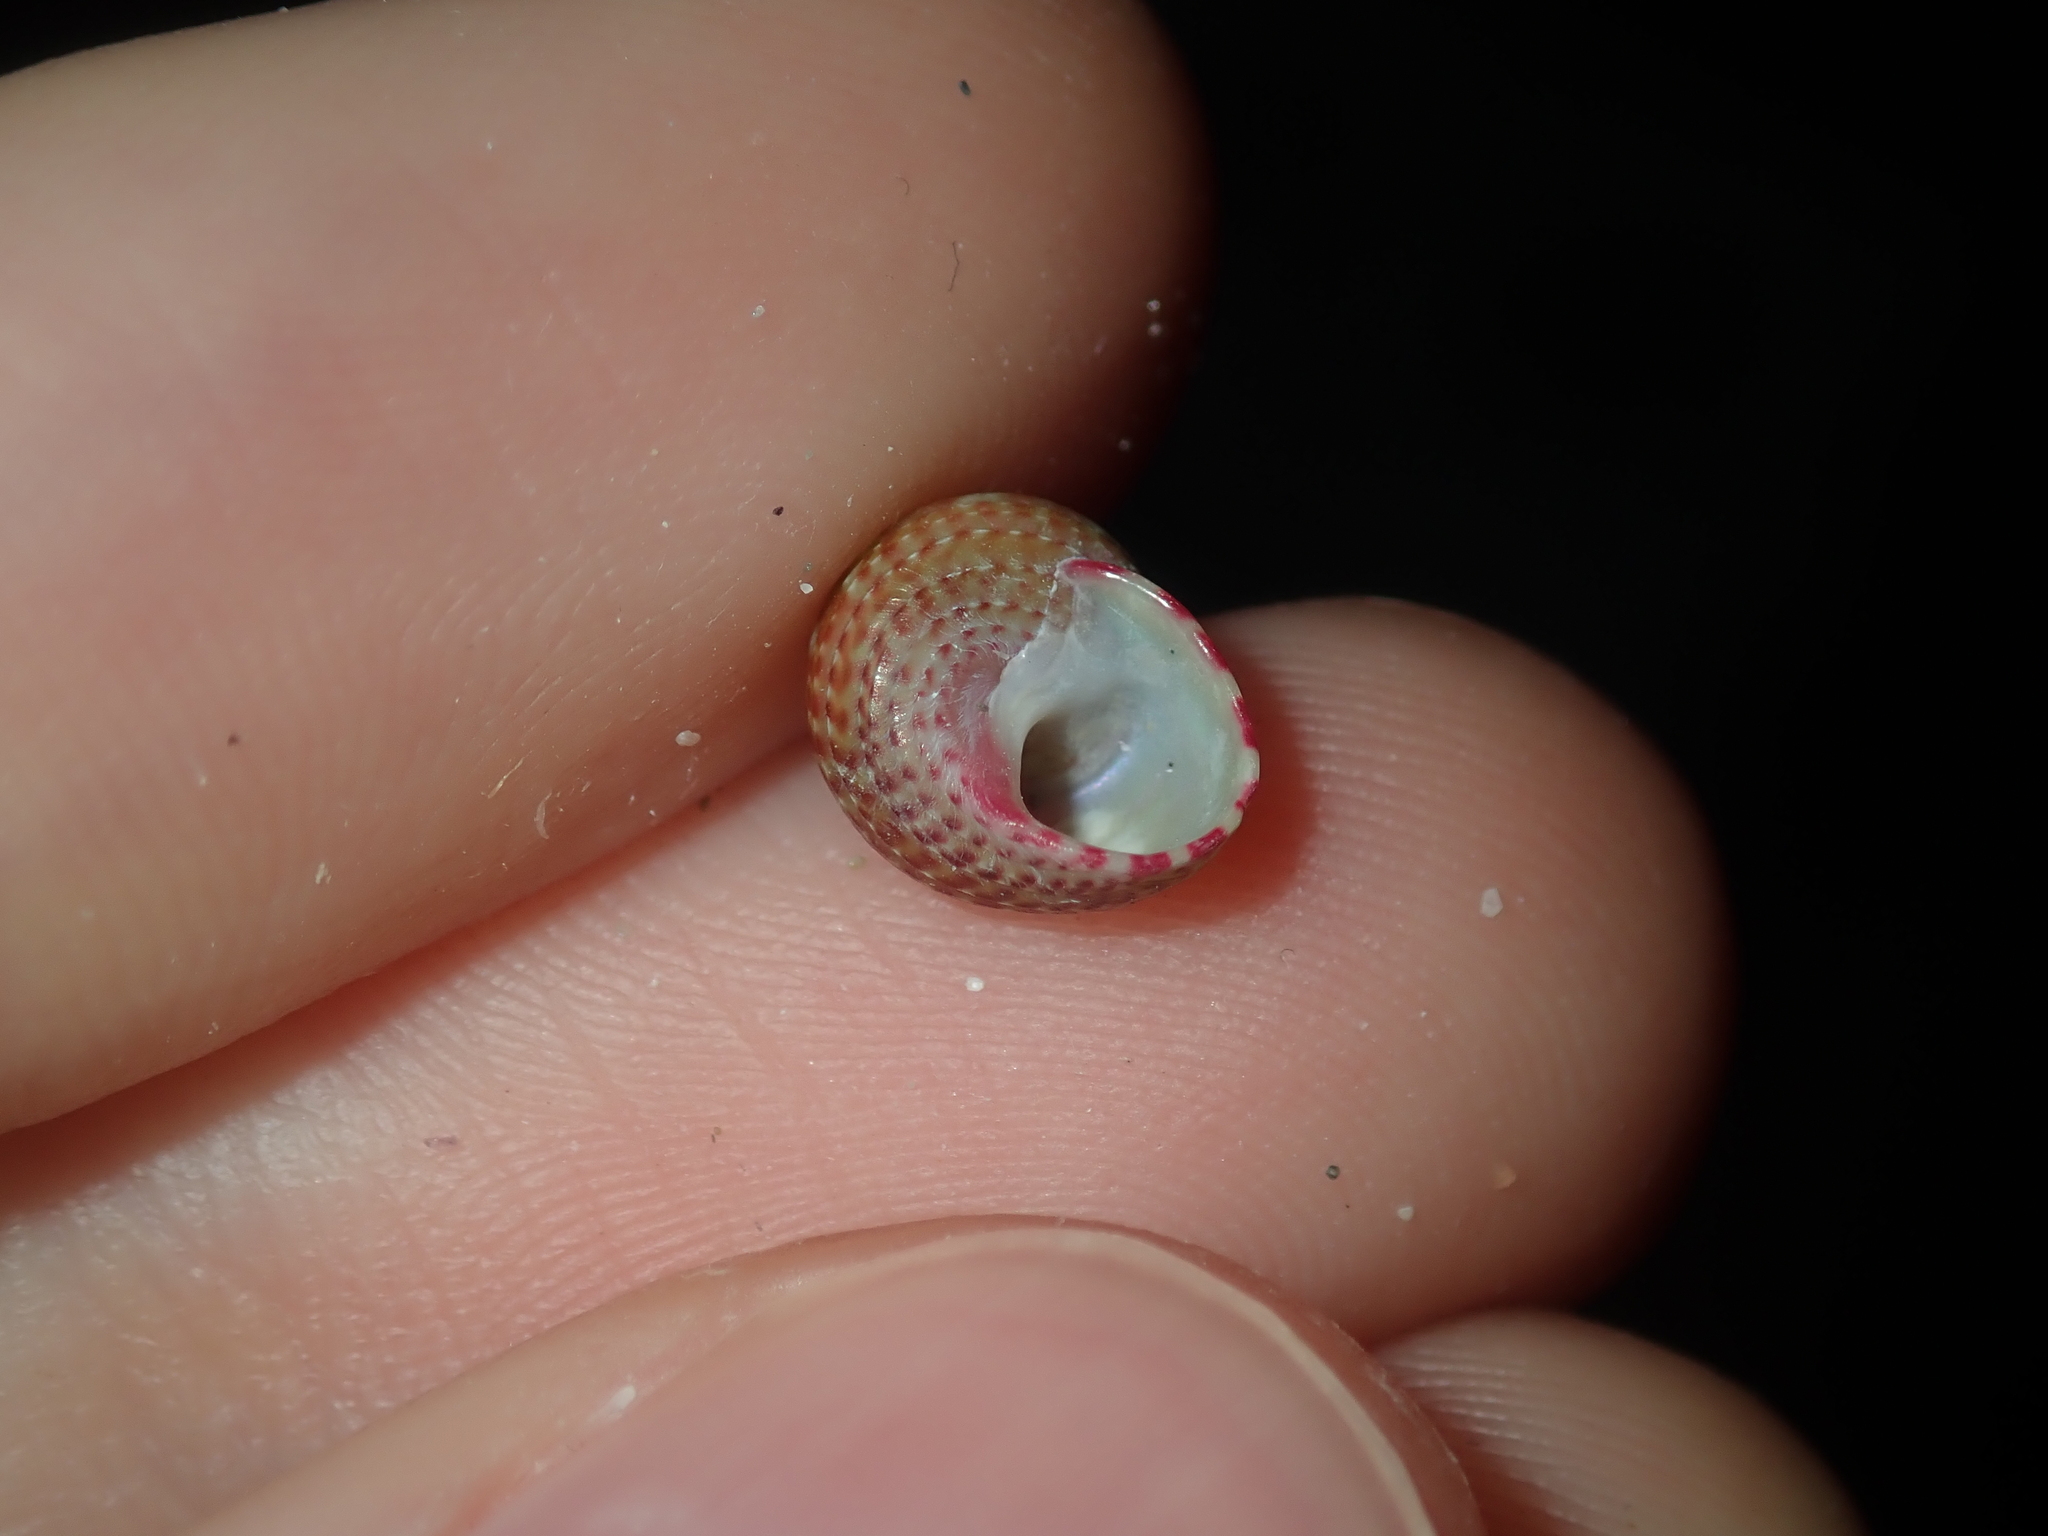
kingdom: Animalia
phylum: Mollusca
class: Gastropoda
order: Trochida
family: Trochidae
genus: Prothalotia
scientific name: Prothalotia pulcherrima
